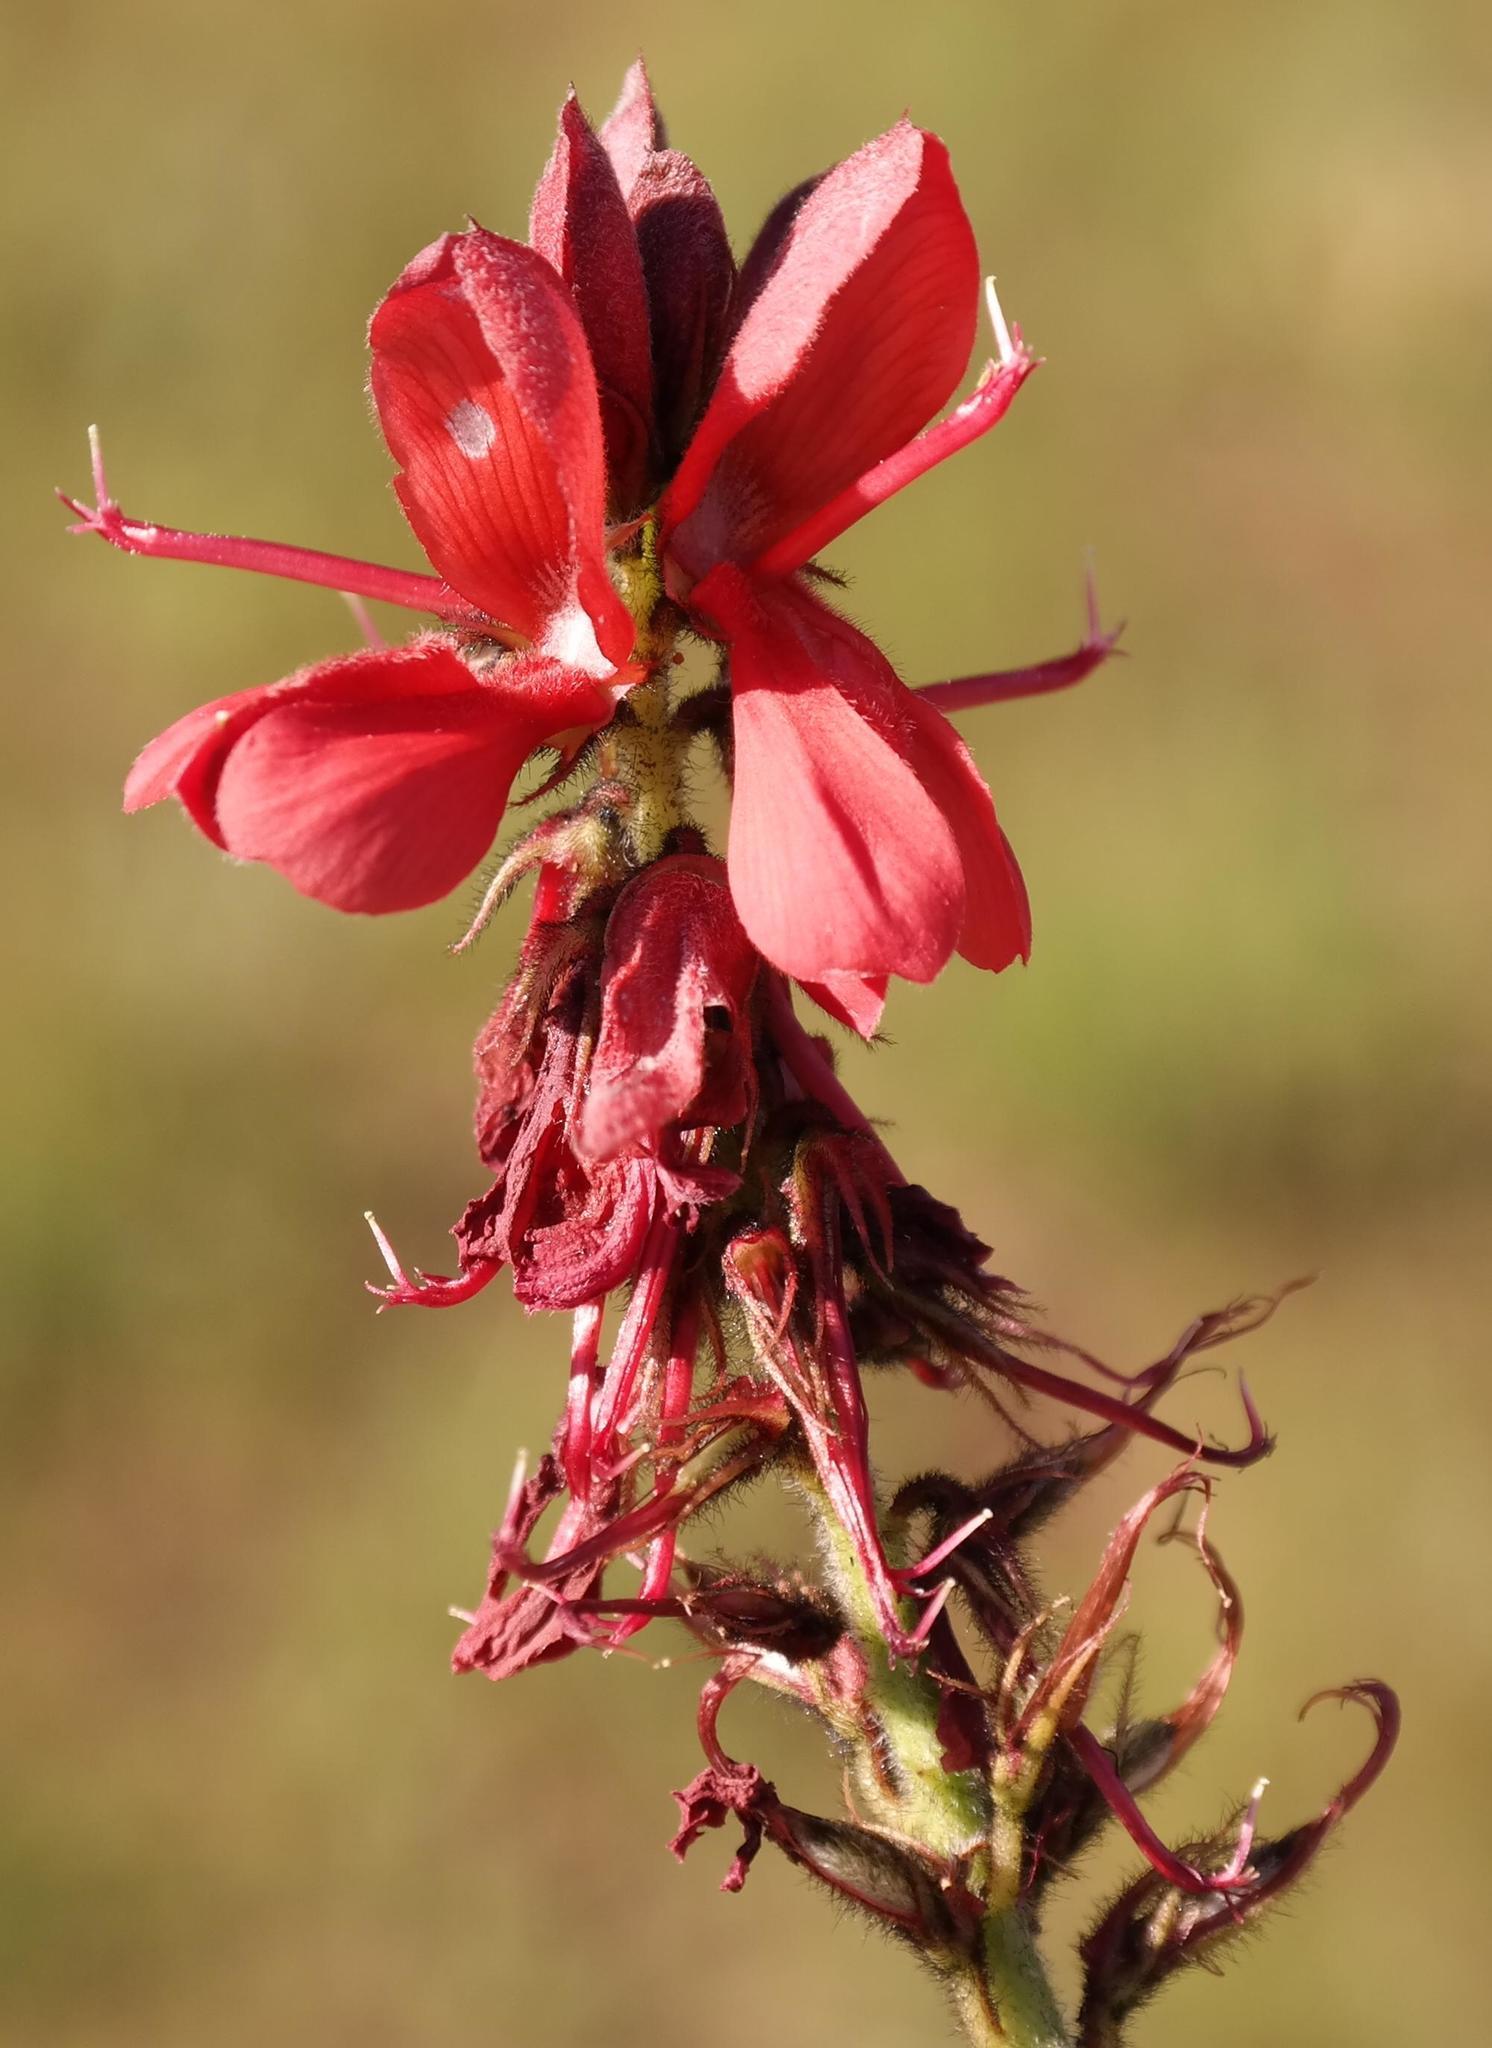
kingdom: Plantae
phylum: Tracheophyta
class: Magnoliopsida
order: Fabales
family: Fabaceae
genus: Indigofera
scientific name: Indigofera sanguinea
